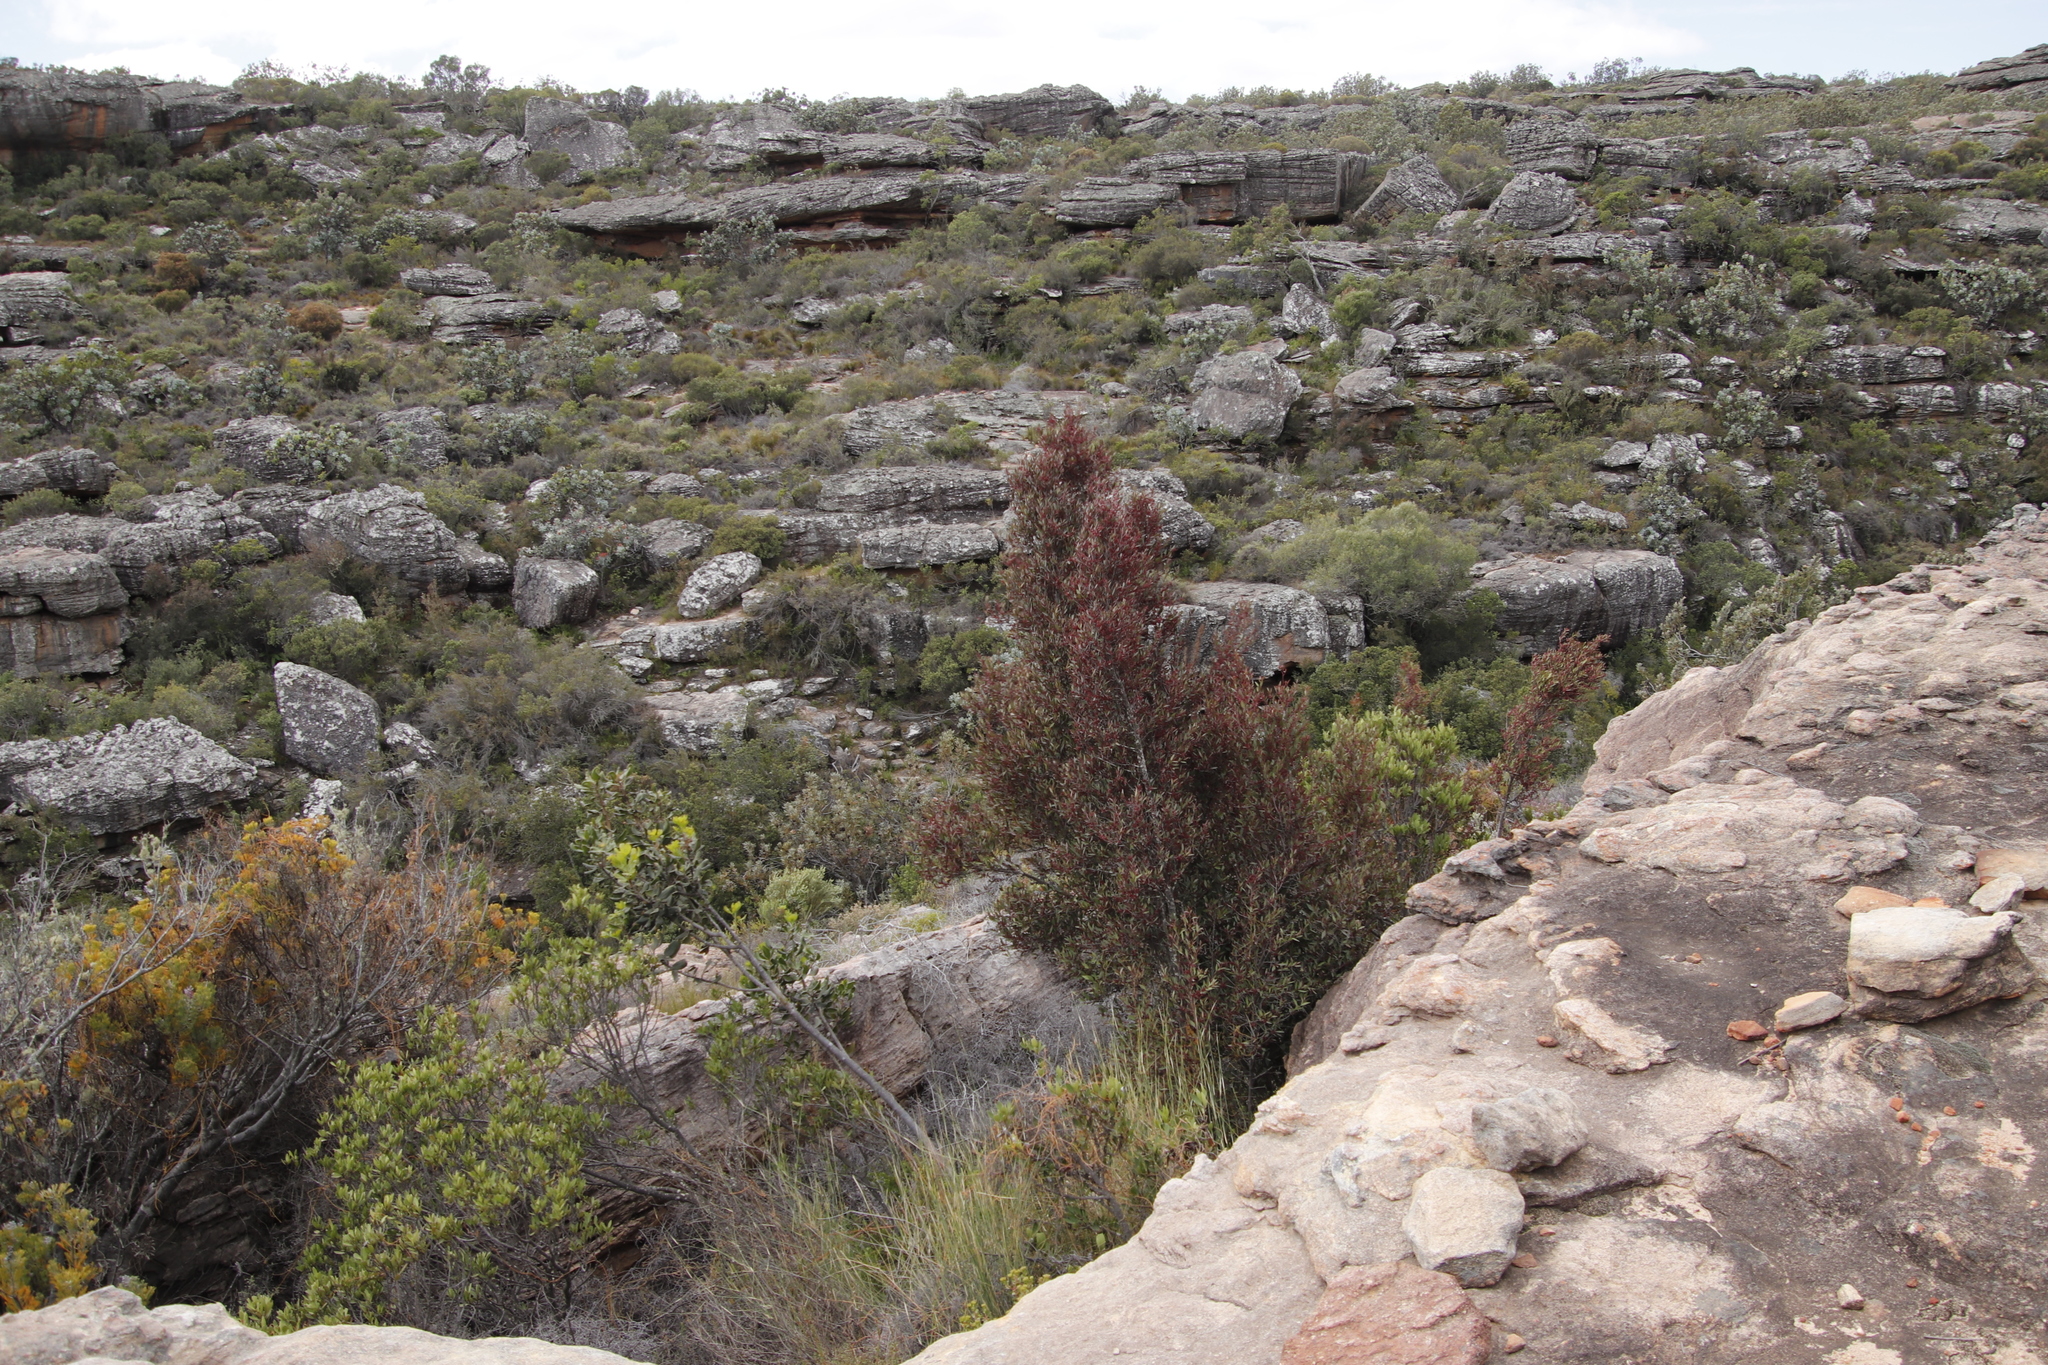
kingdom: Plantae
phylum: Tracheophyta
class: Magnoliopsida
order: Celastrales
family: Celastraceae
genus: Gymnosporia
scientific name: Gymnosporia acuminata
